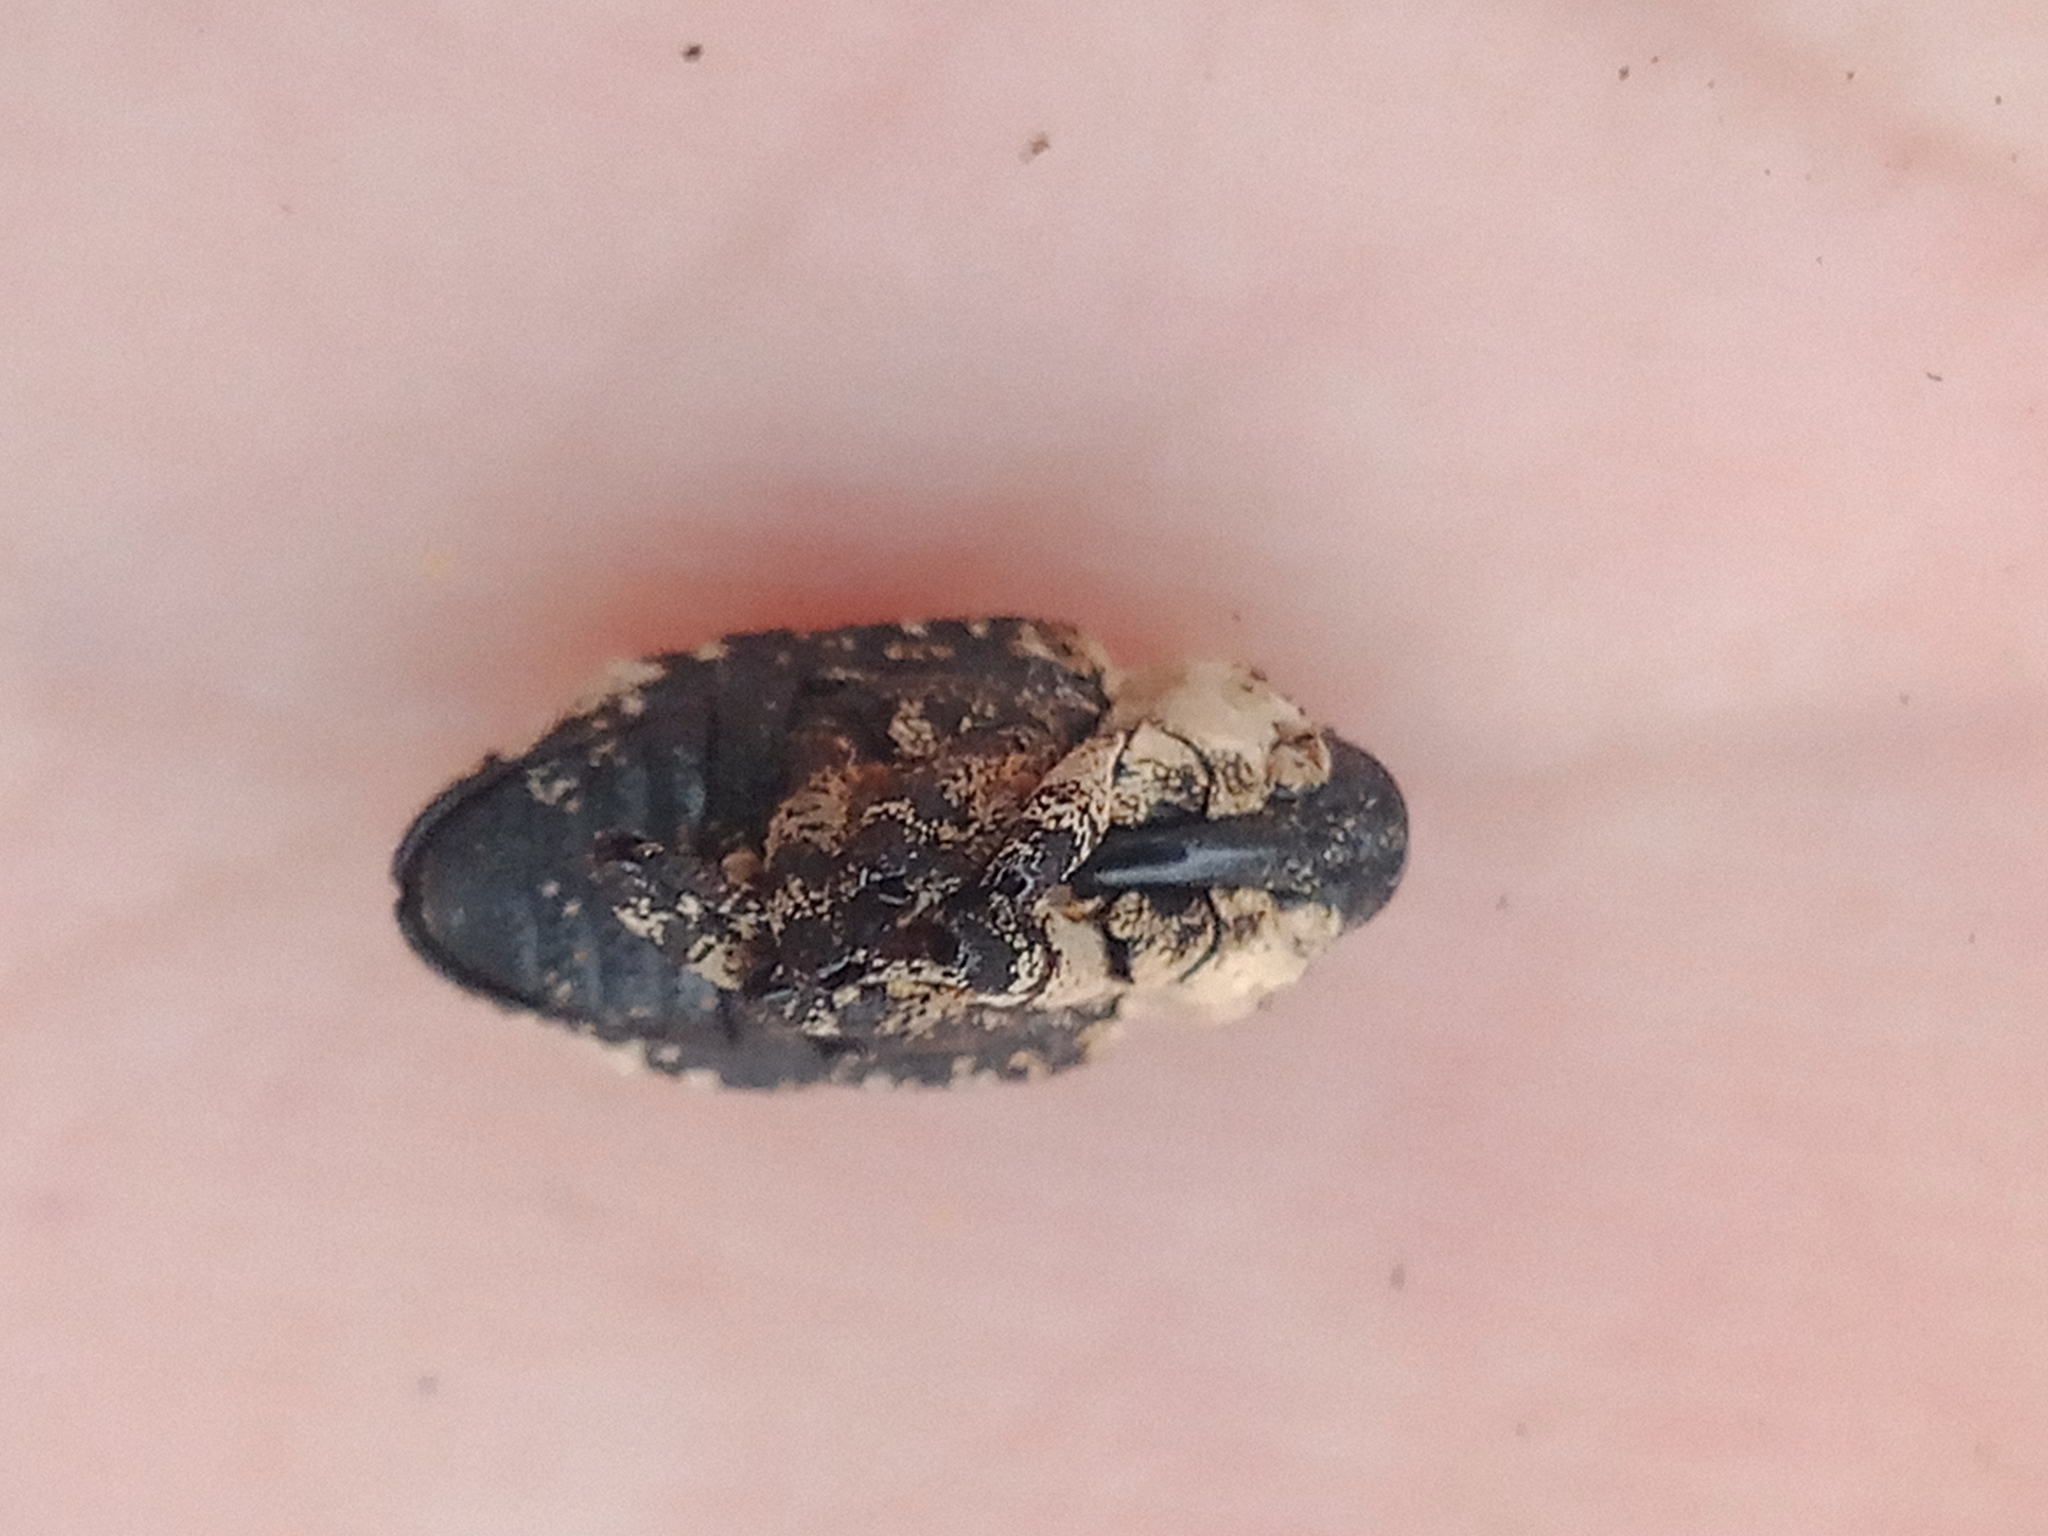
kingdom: Animalia
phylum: Arthropoda
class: Insecta
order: Coleoptera
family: Curculionidae
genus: Cryptorhynchus
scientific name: Cryptorhynchus lapathi
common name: Weevil
